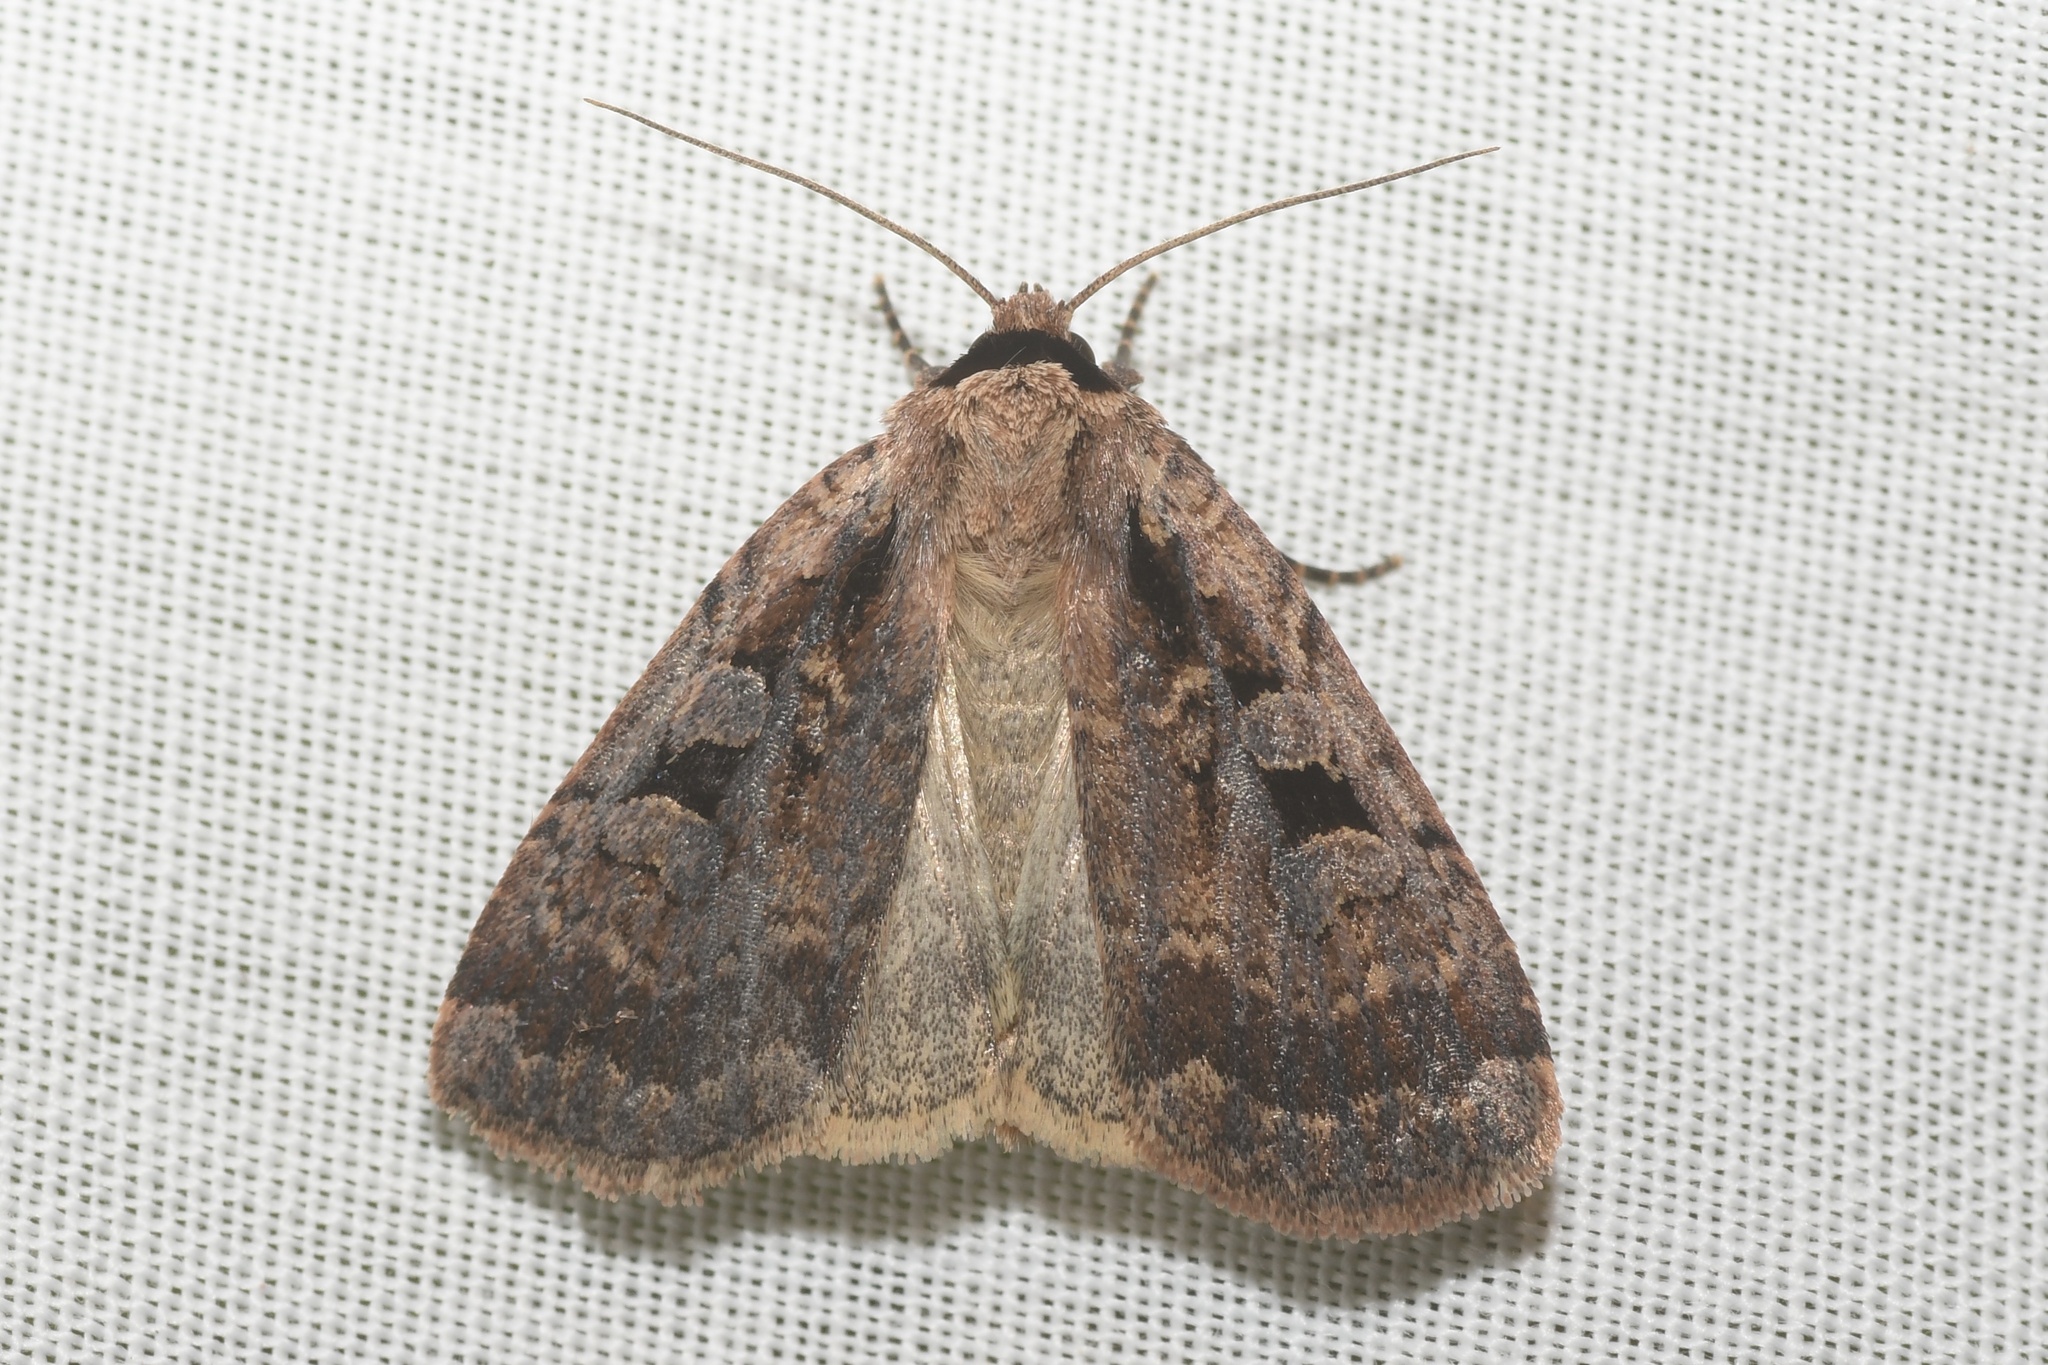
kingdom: Animalia
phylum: Arthropoda
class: Insecta
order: Lepidoptera
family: Noctuidae
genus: Eueretagrotis
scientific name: Eueretagrotis perattentus
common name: Two-spot dart moth
